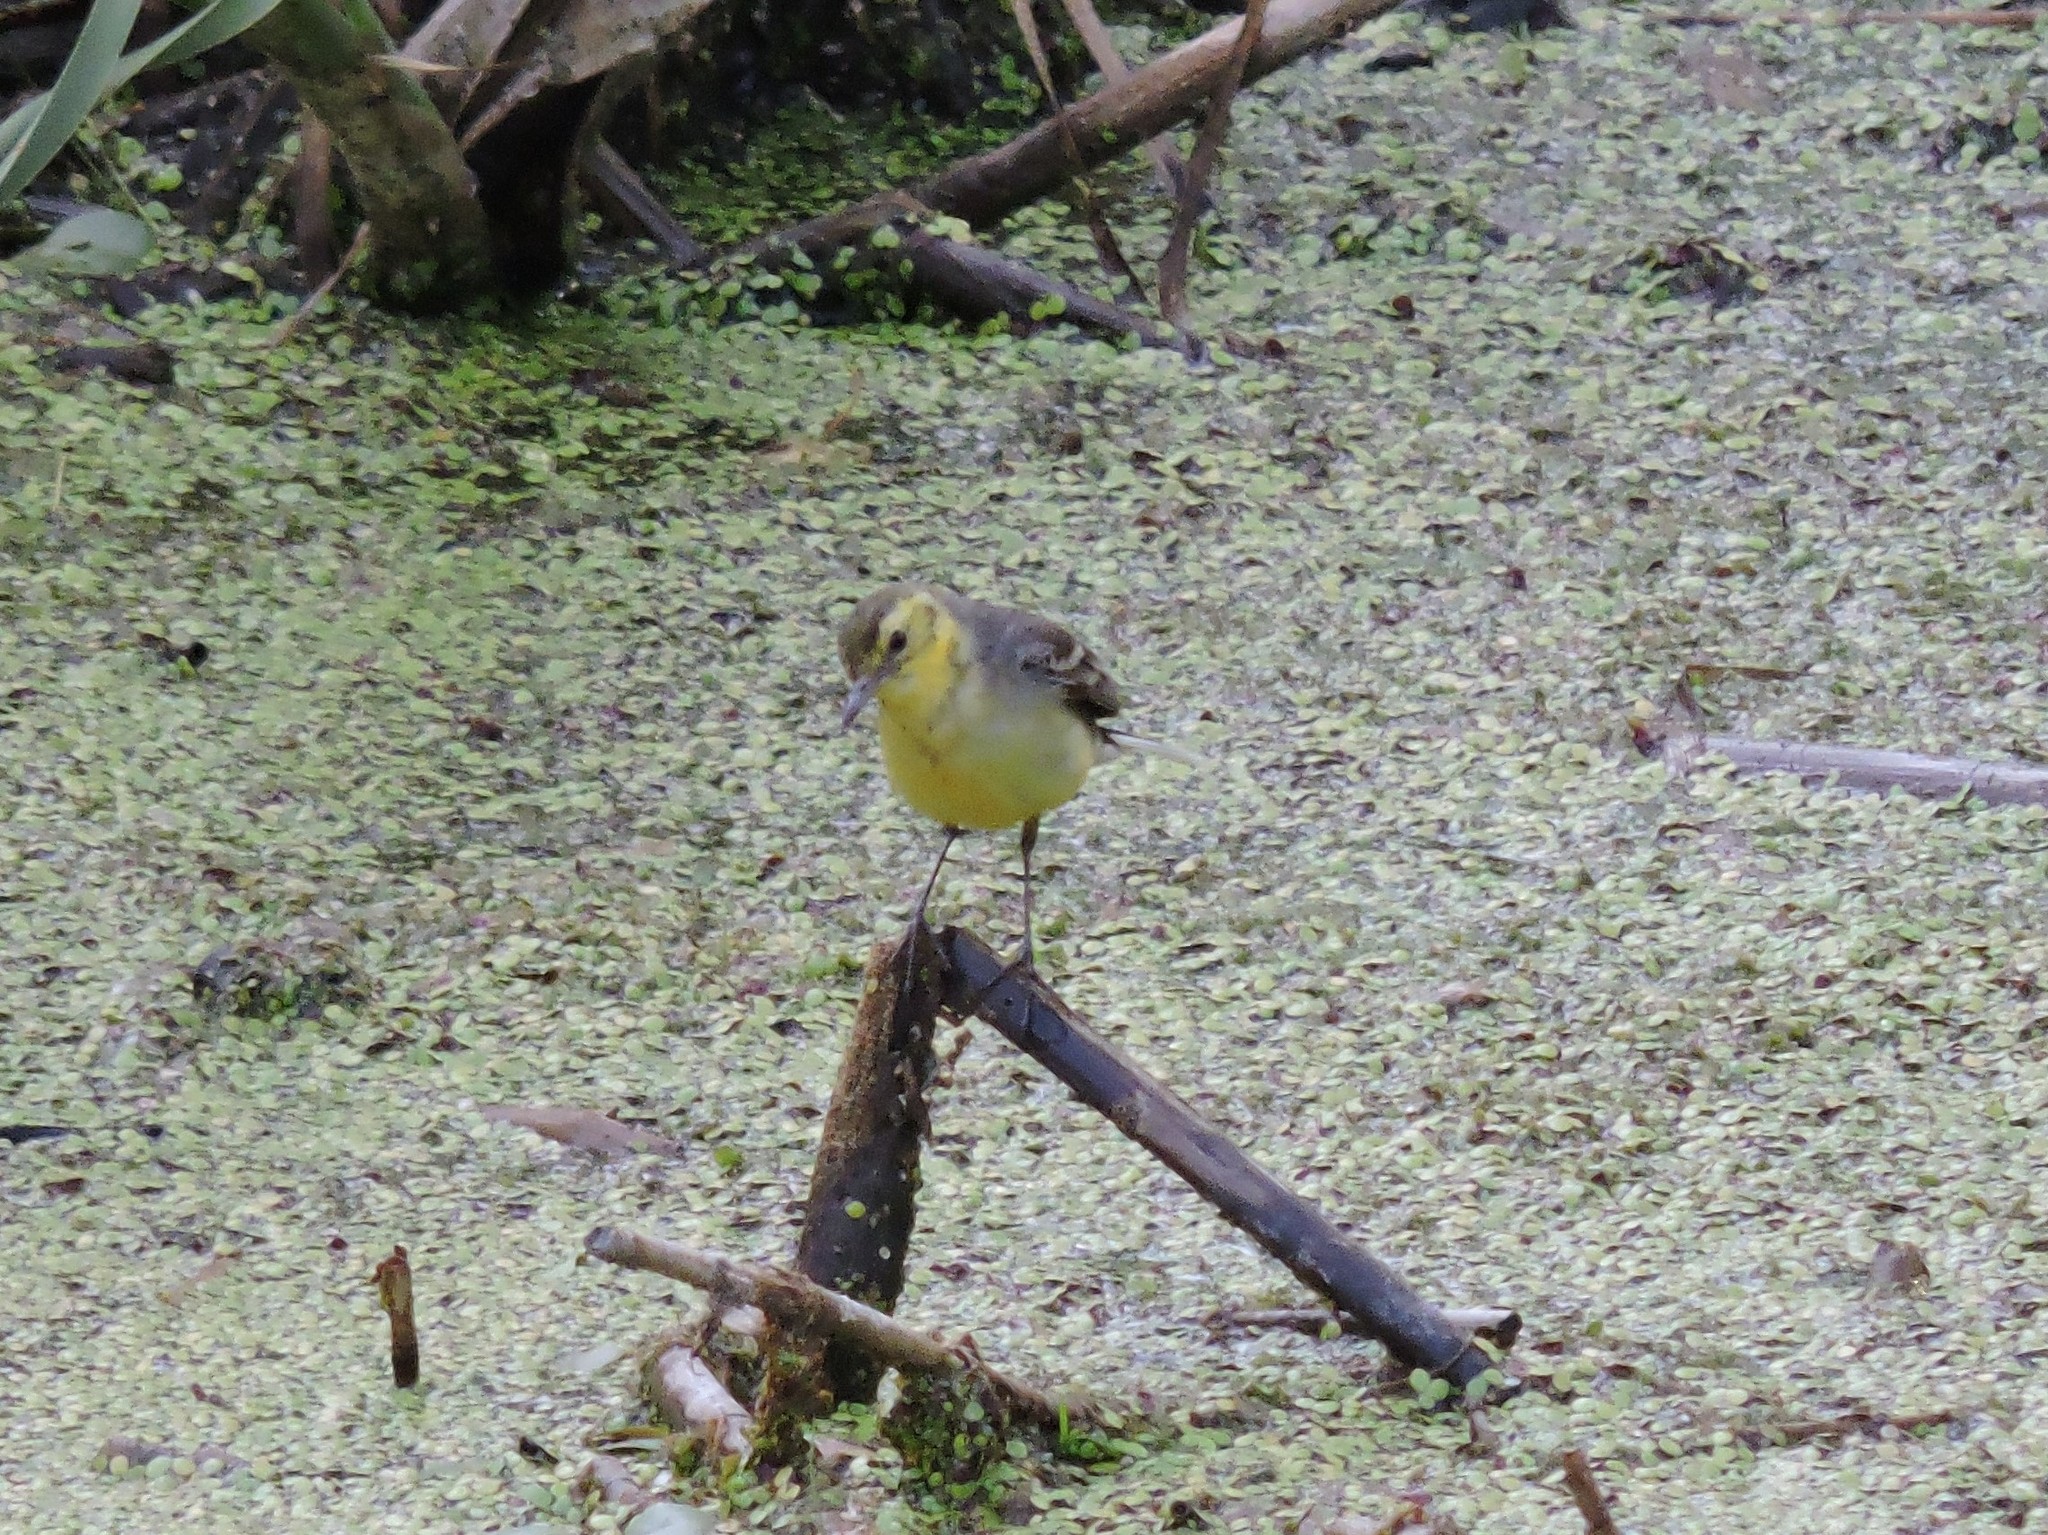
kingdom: Animalia
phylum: Chordata
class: Aves
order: Passeriformes
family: Motacillidae
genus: Motacilla
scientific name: Motacilla citreola
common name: Citrine wagtail
